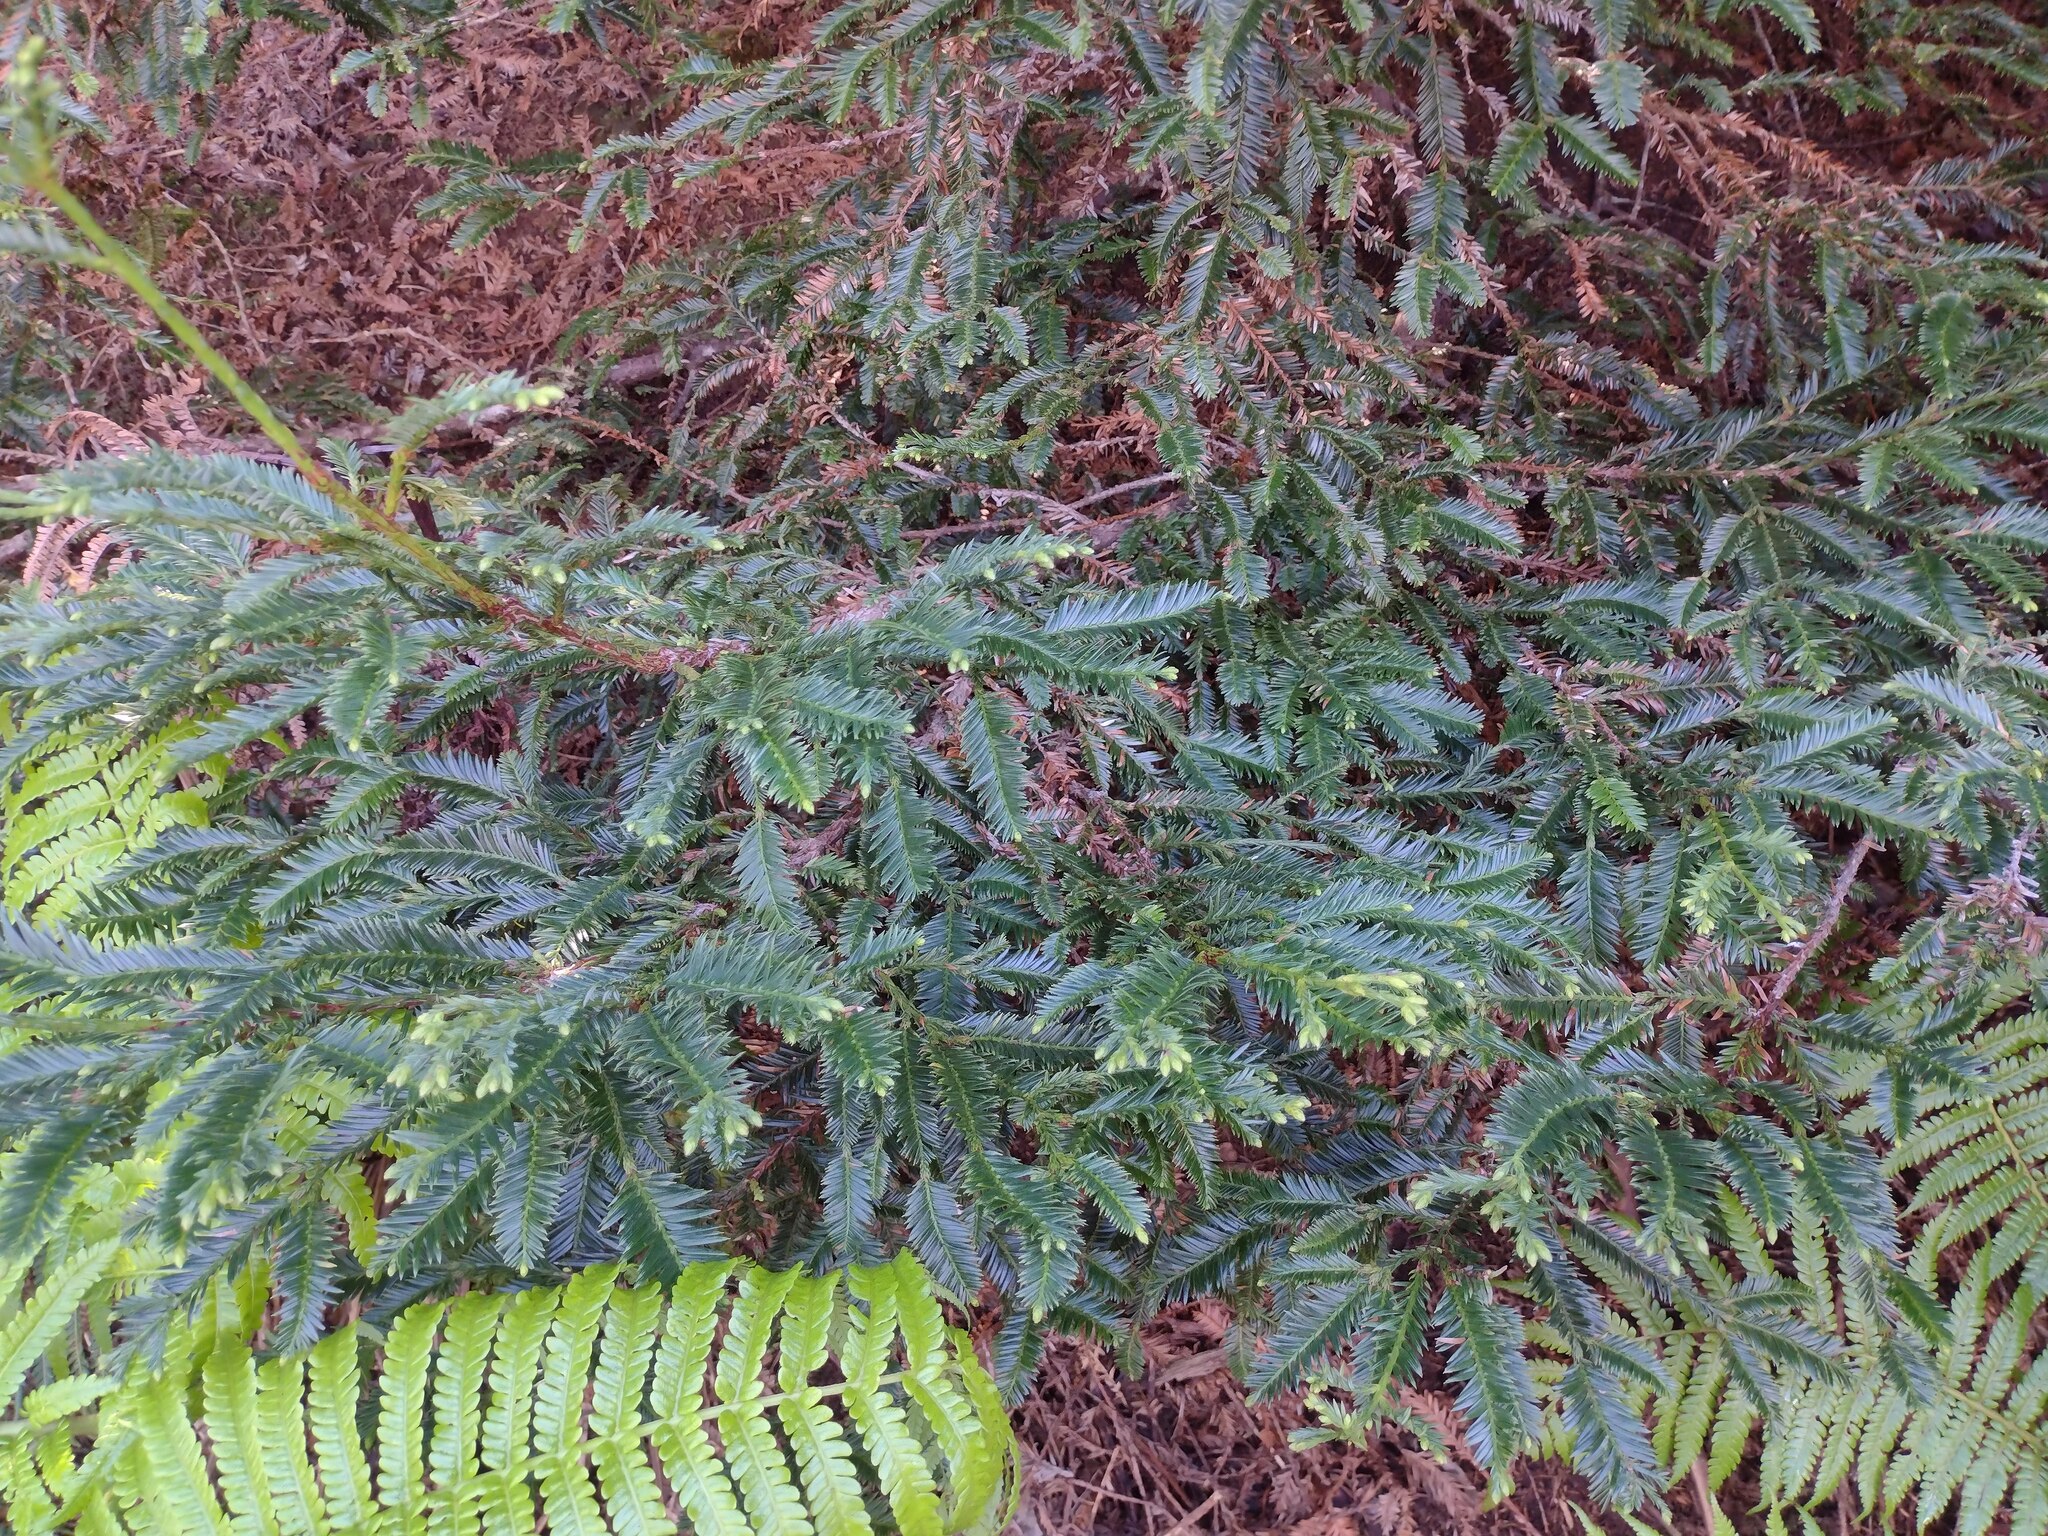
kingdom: Plantae
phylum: Tracheophyta
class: Pinopsida
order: Pinales
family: Cupressaceae
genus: Sequoia
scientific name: Sequoia sempervirens
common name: Coast redwood
